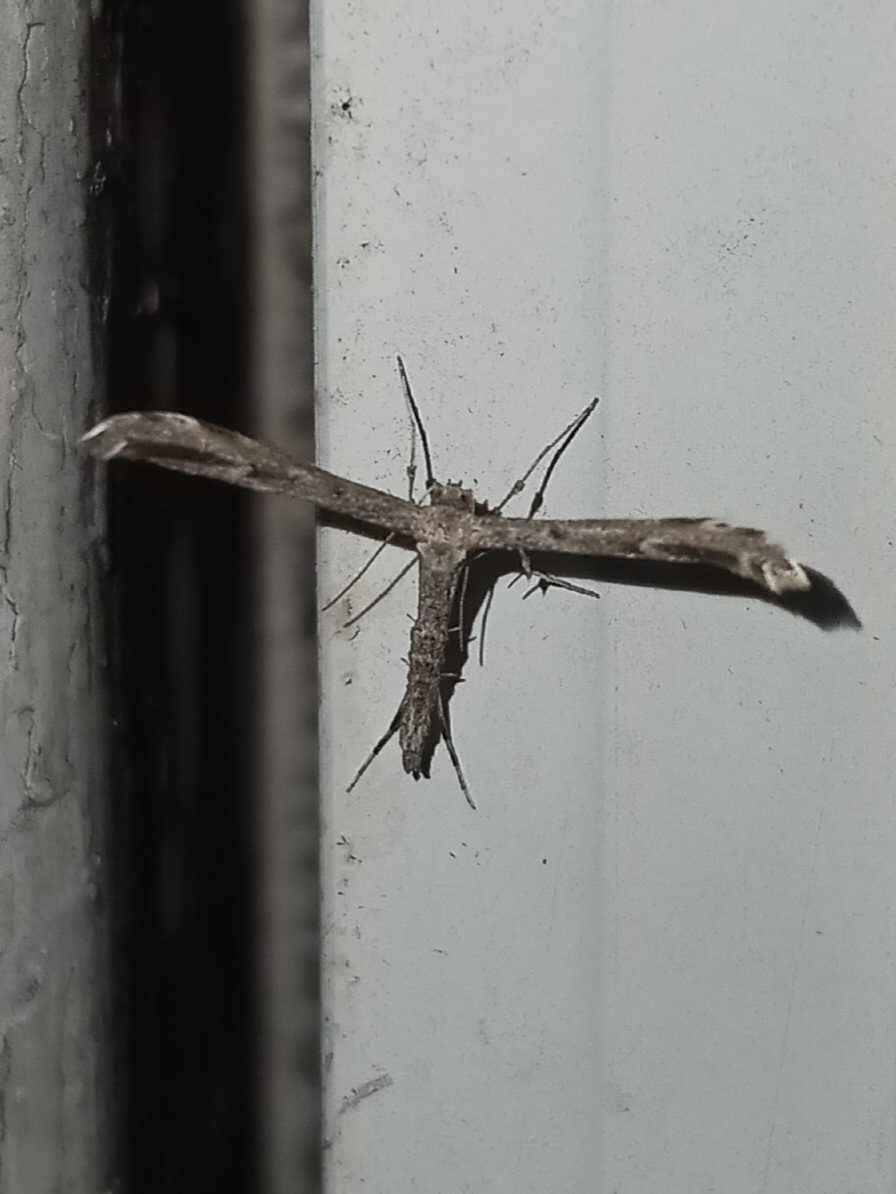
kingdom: Animalia
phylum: Arthropoda
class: Insecta
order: Lepidoptera
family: Pterophoridae
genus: Hellinsia
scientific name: Hellinsia inquinatus
